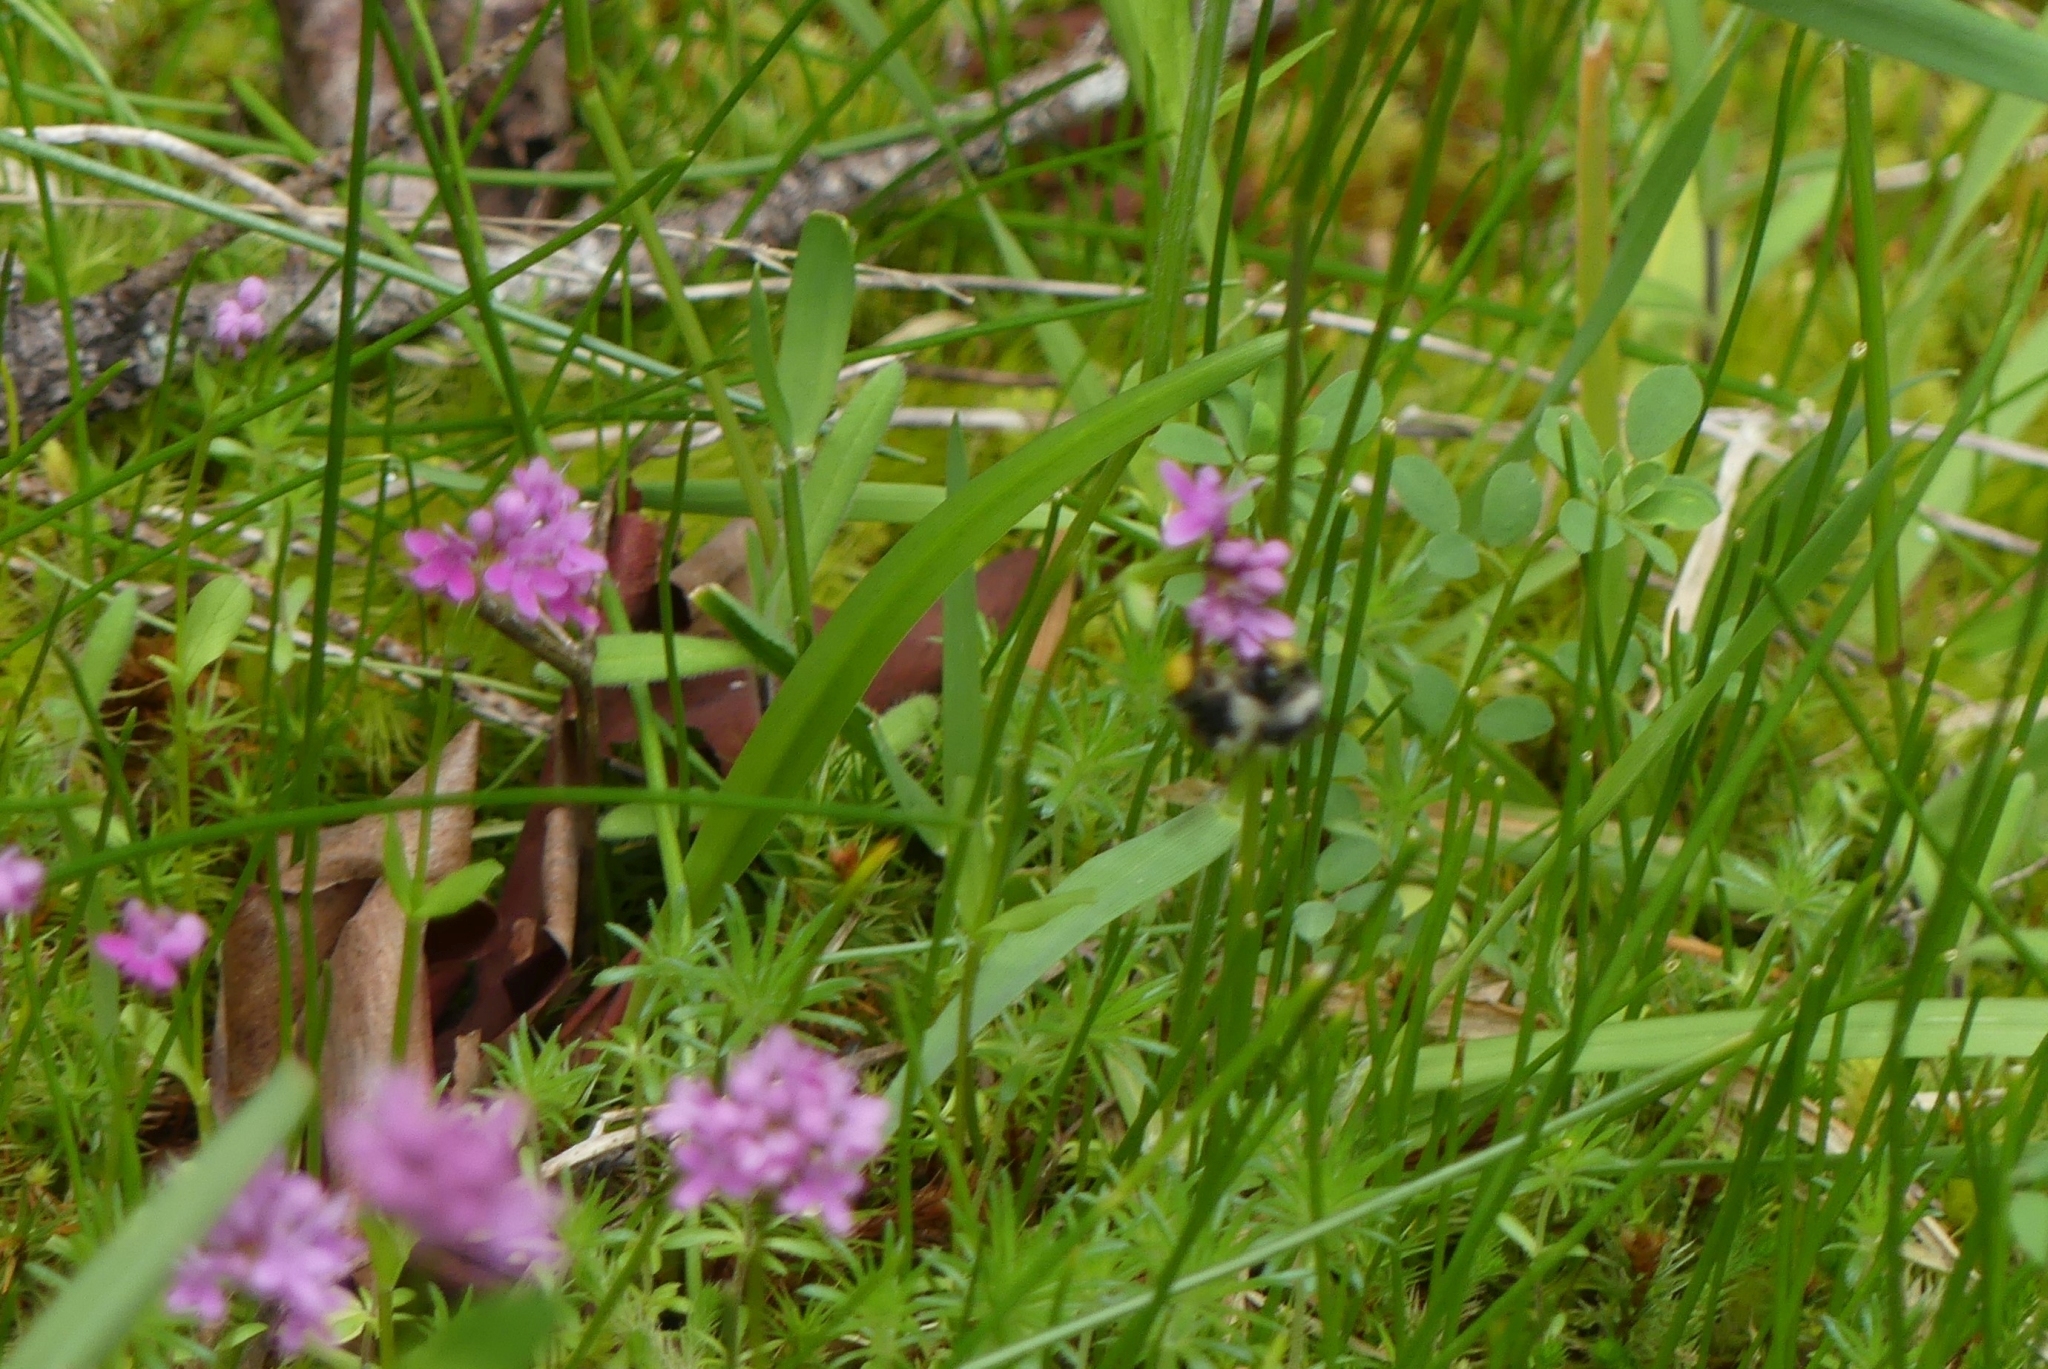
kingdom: Animalia
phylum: Arthropoda
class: Insecta
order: Hymenoptera
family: Apidae
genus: Bombus
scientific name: Bombus vancouverensis
